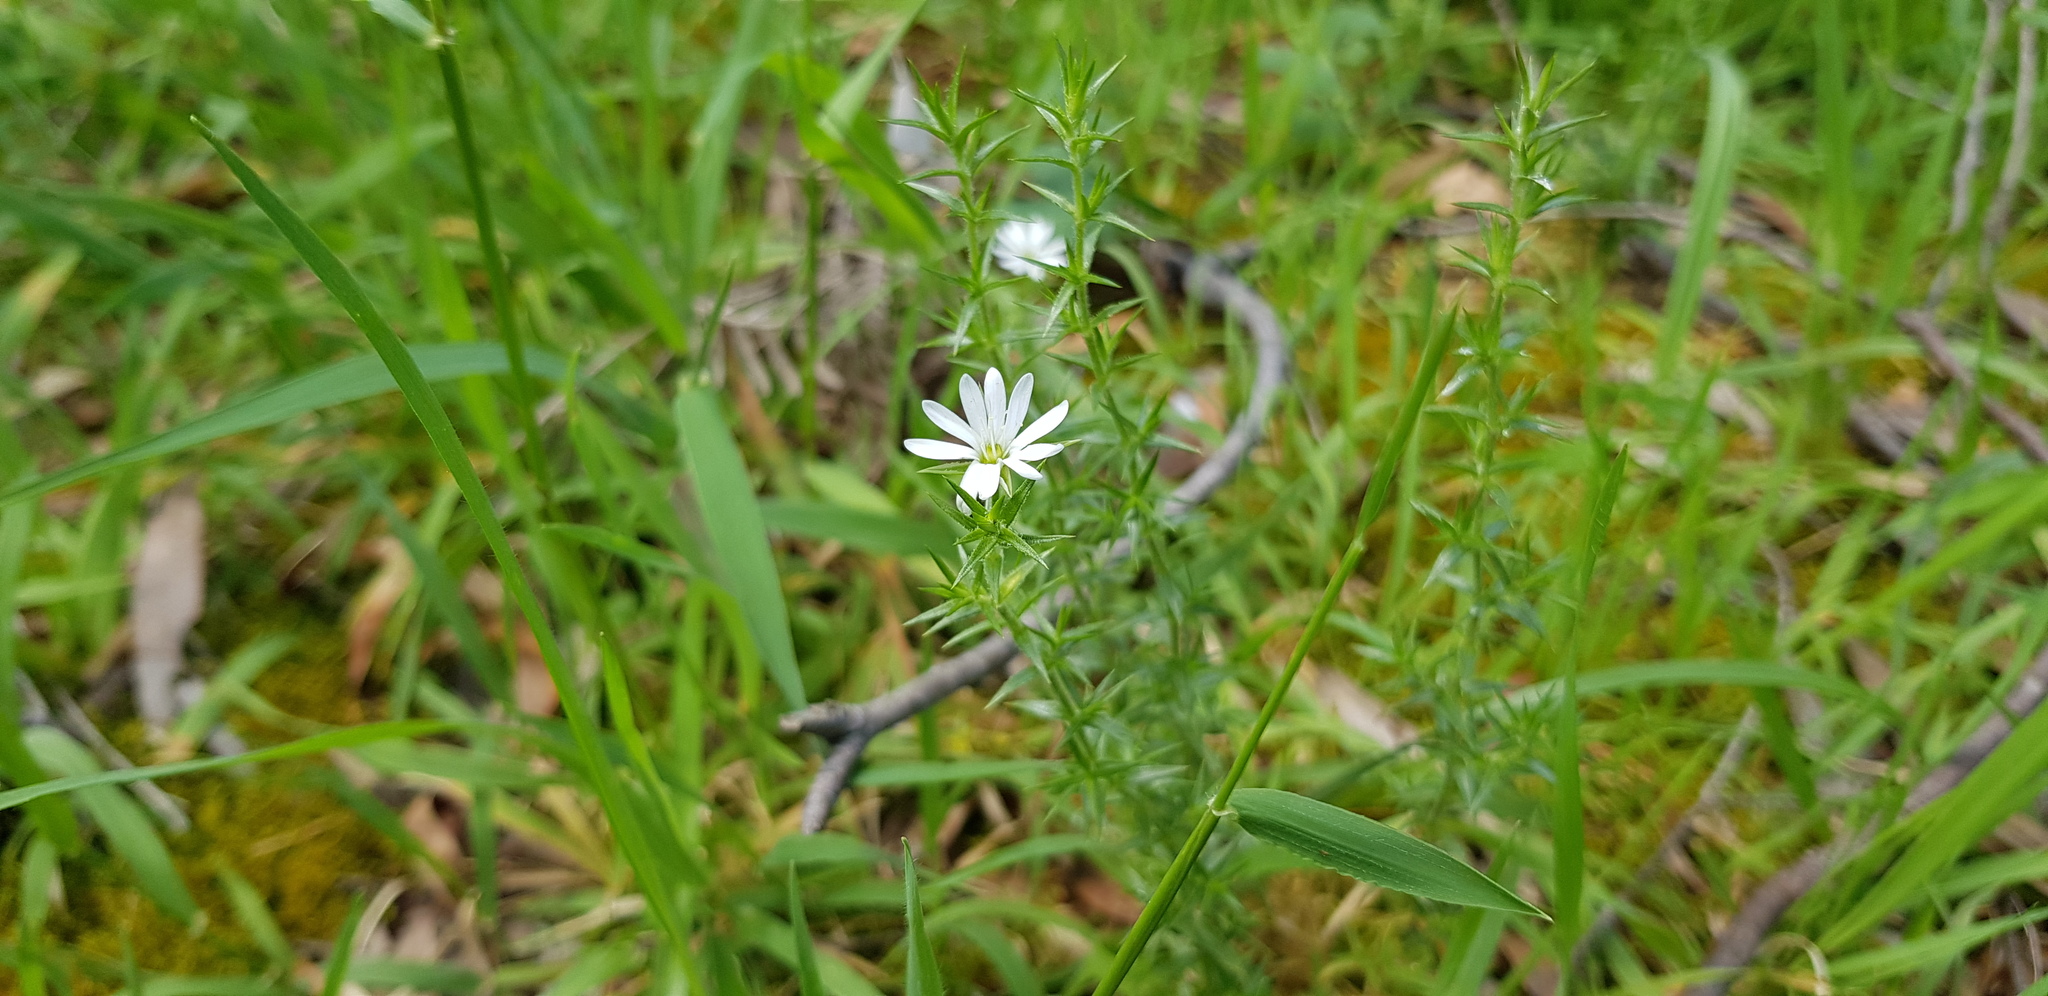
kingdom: Plantae
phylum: Tracheophyta
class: Magnoliopsida
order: Caryophyllales
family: Caryophyllaceae
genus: Stellaria
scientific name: Stellaria pungens
